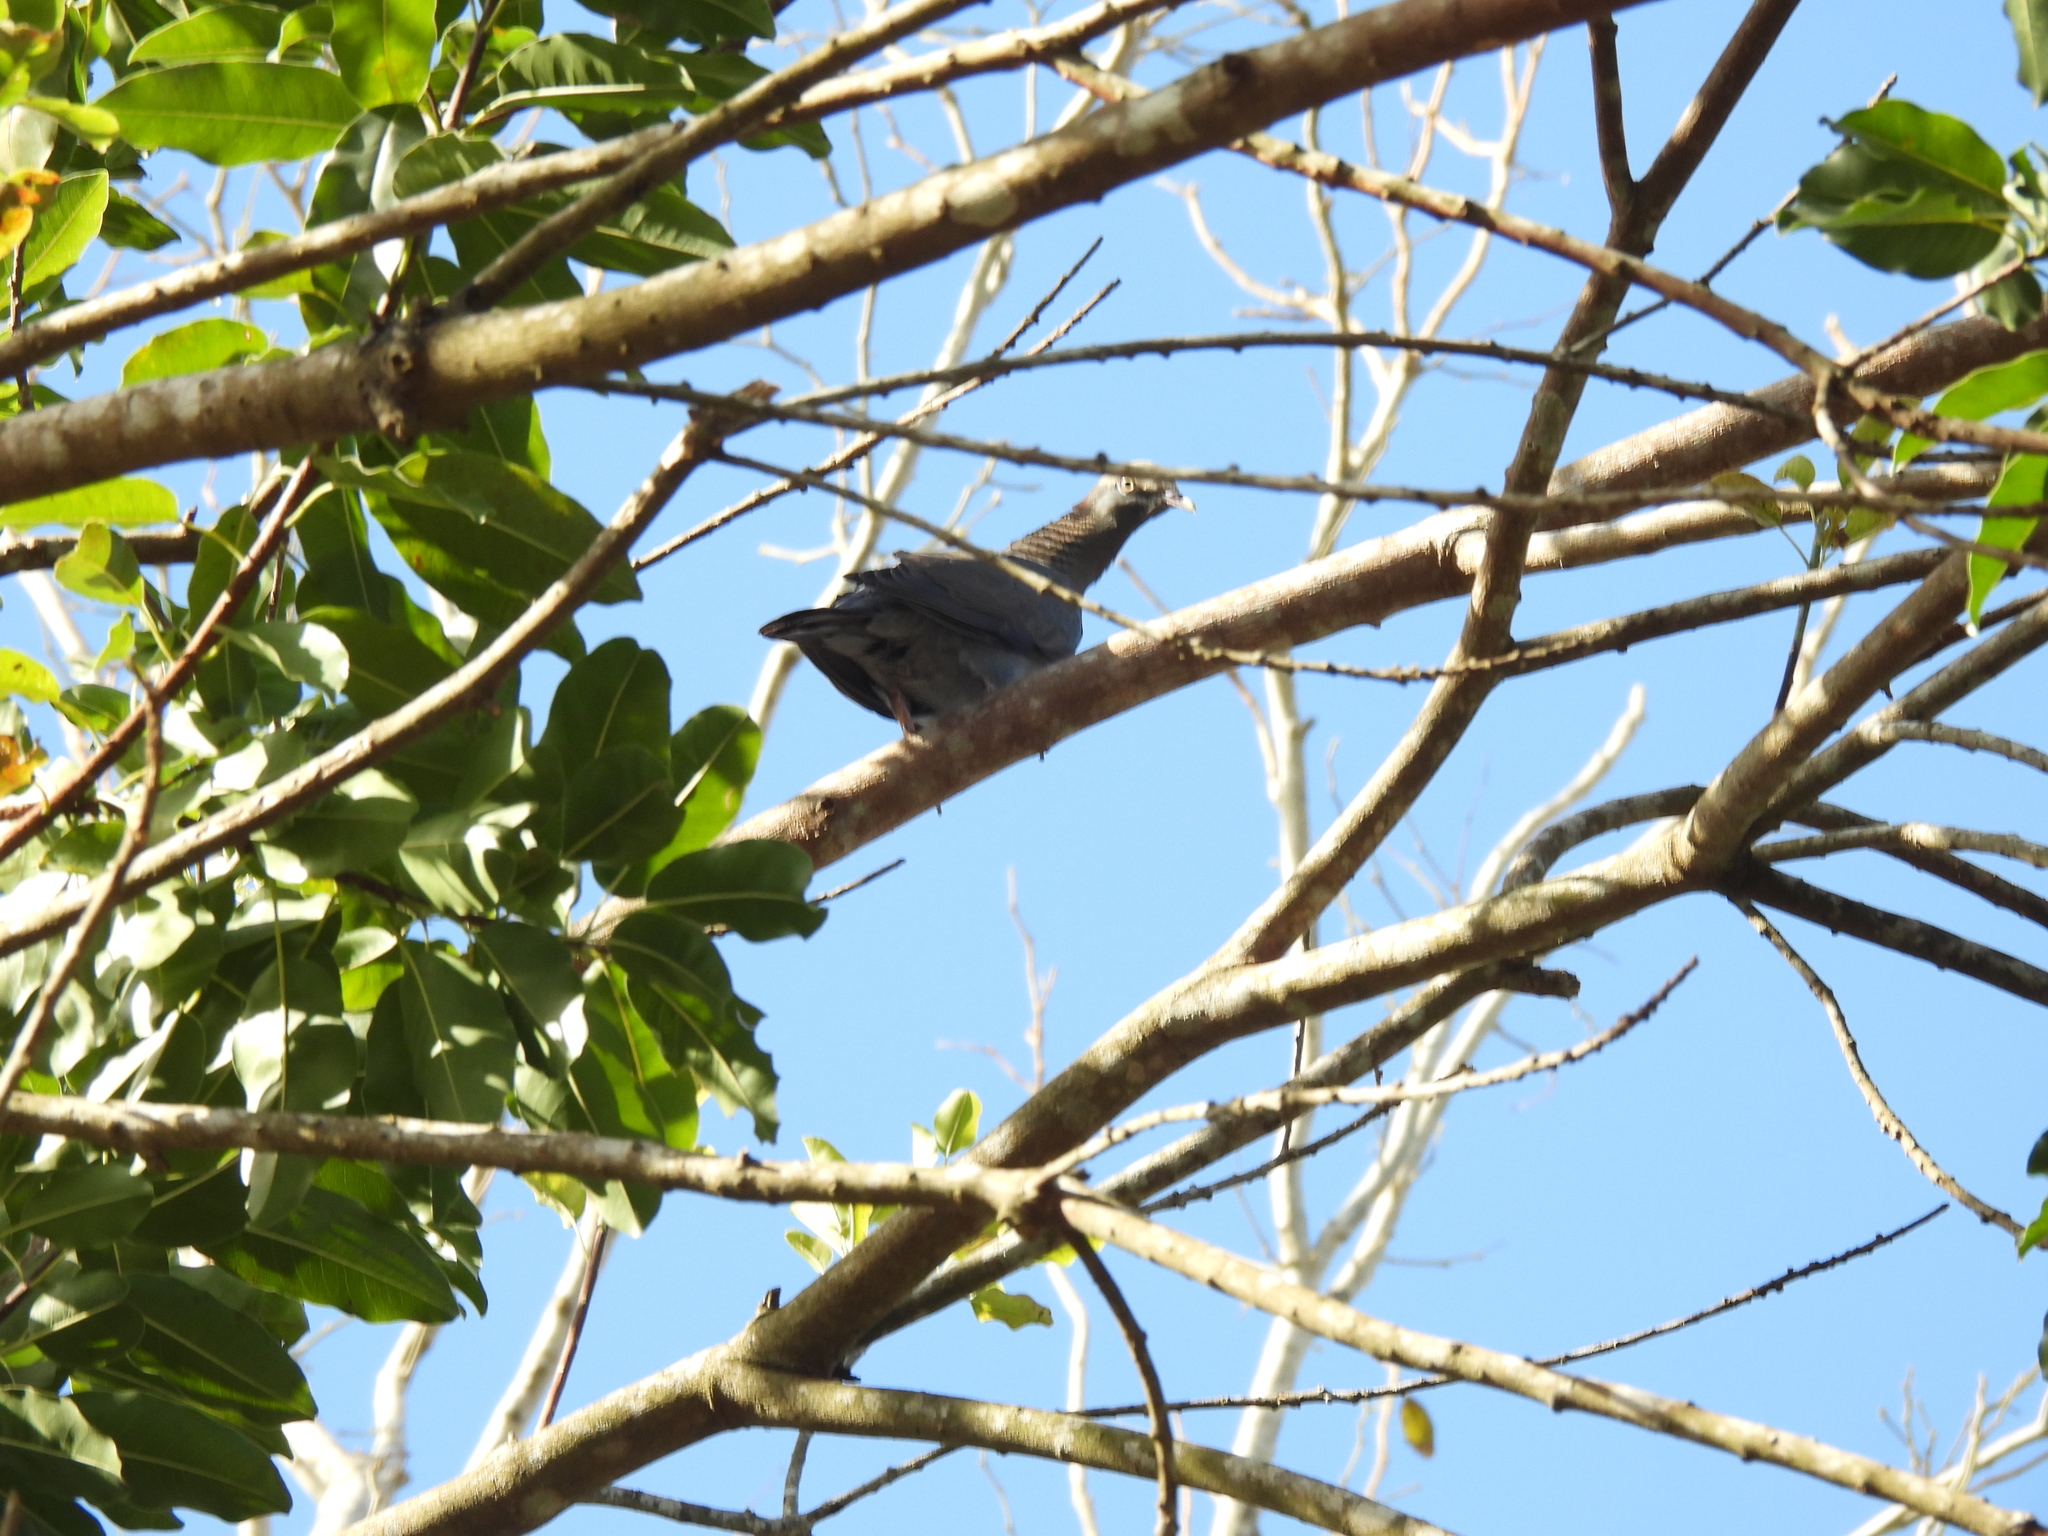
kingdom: Animalia
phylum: Chordata
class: Aves
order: Columbiformes
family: Columbidae
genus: Patagioenas
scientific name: Patagioenas leucocephala
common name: White-crowned pigeon
